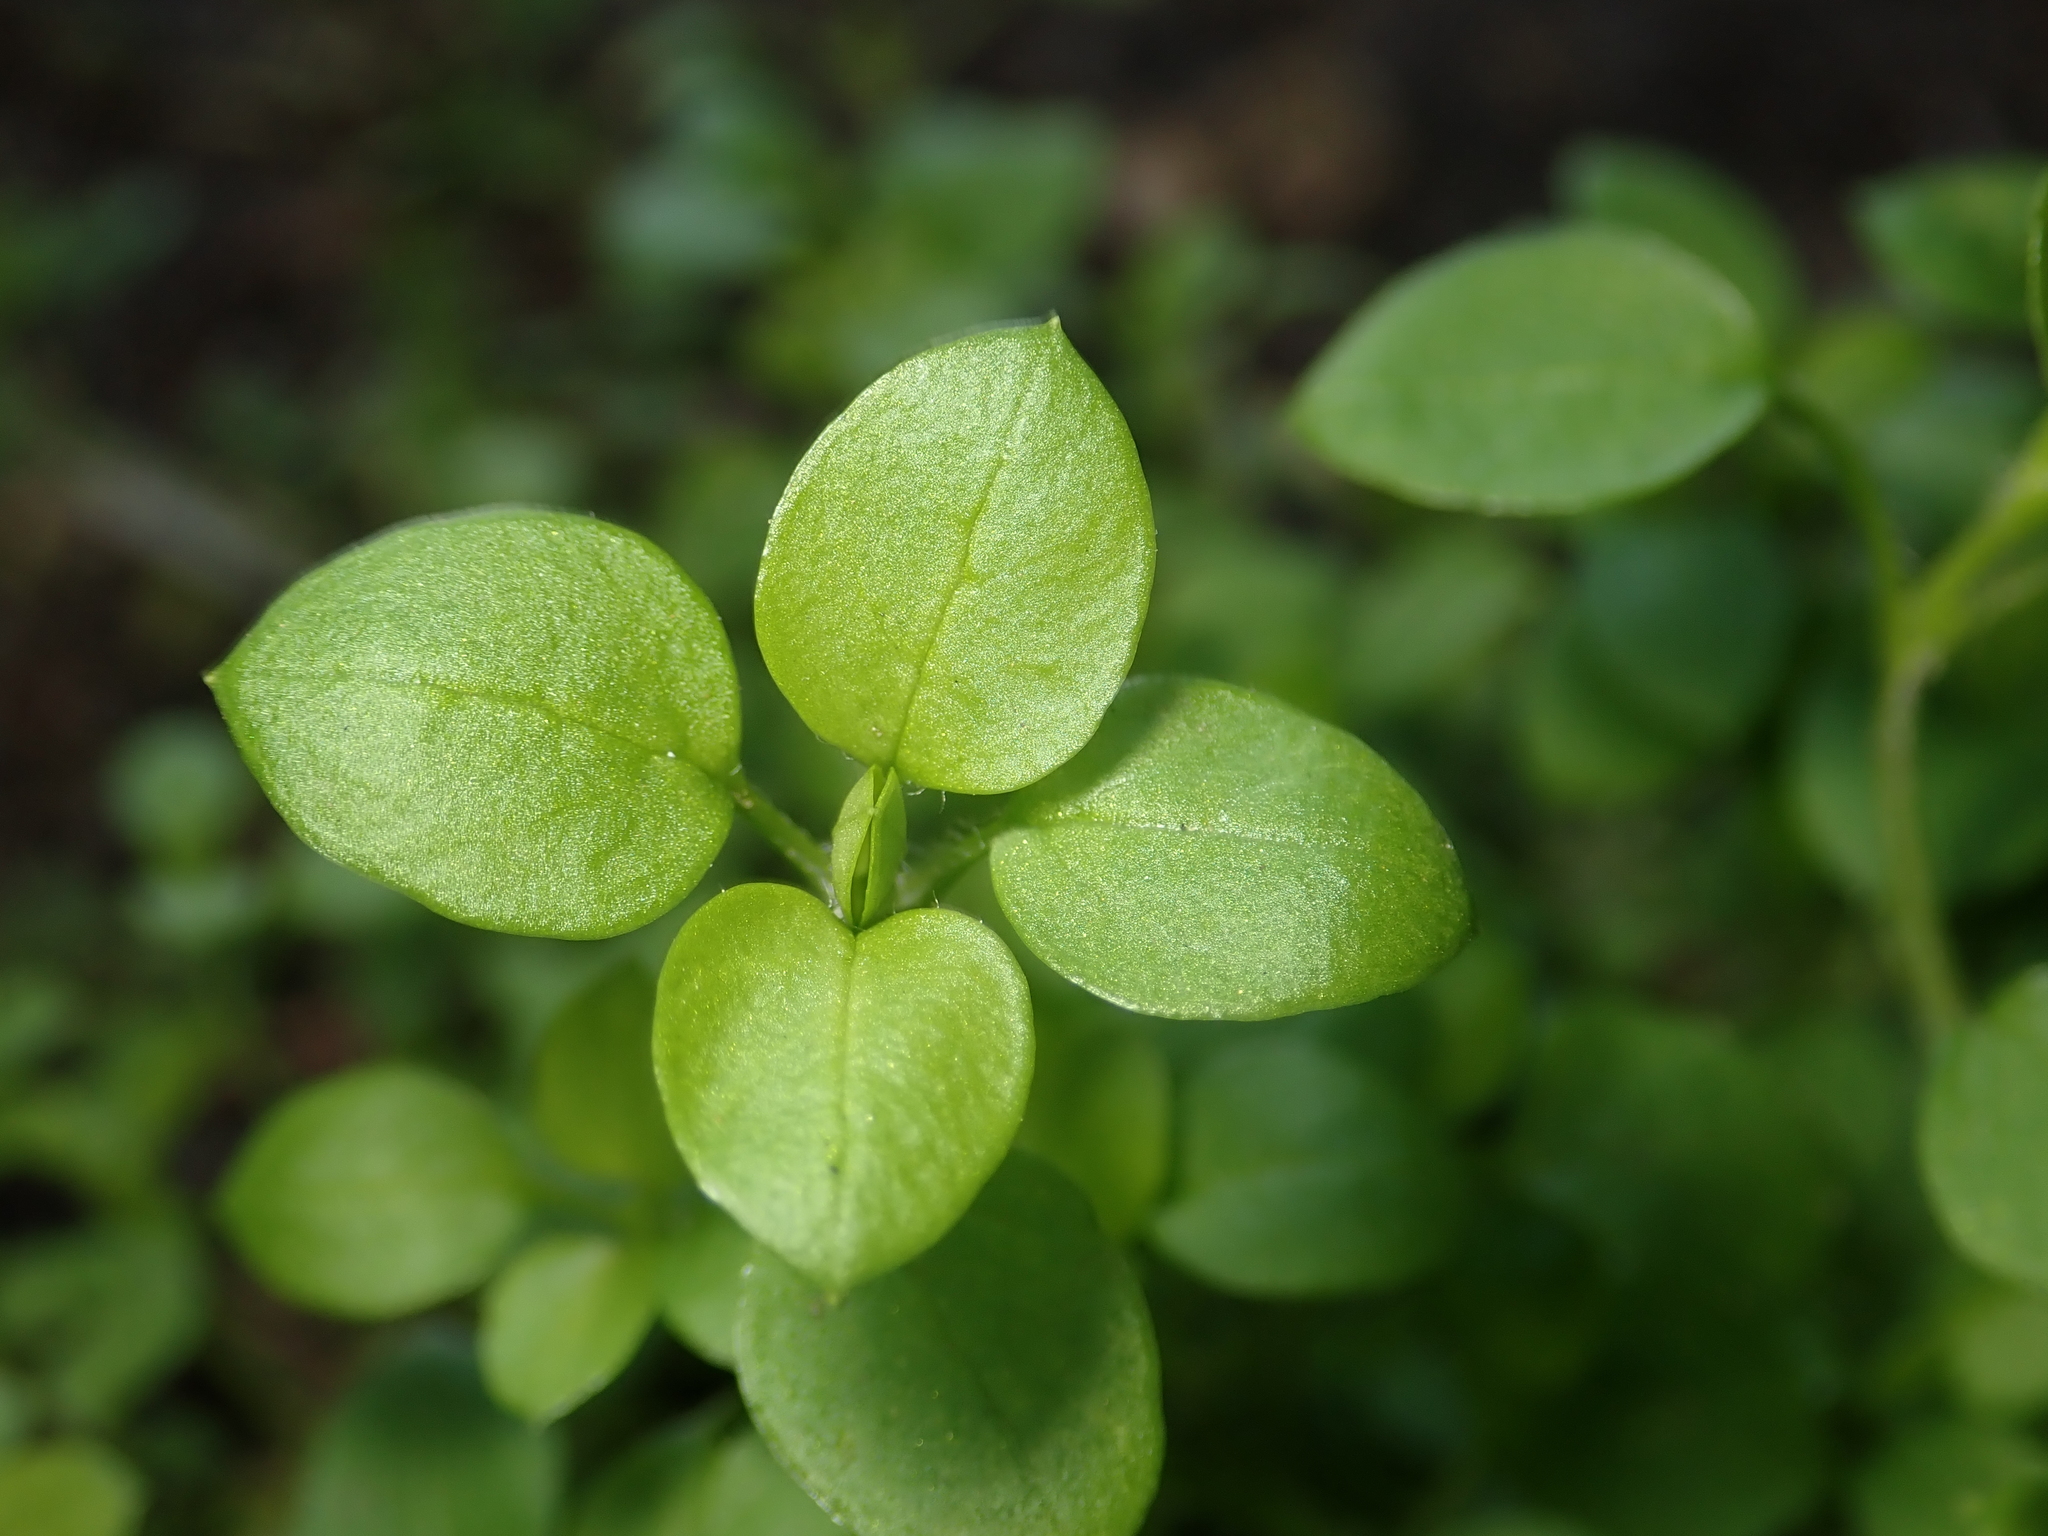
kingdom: Plantae
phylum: Tracheophyta
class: Magnoliopsida
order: Caryophyllales
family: Caryophyllaceae
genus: Stellaria
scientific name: Stellaria media
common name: Common chickweed
